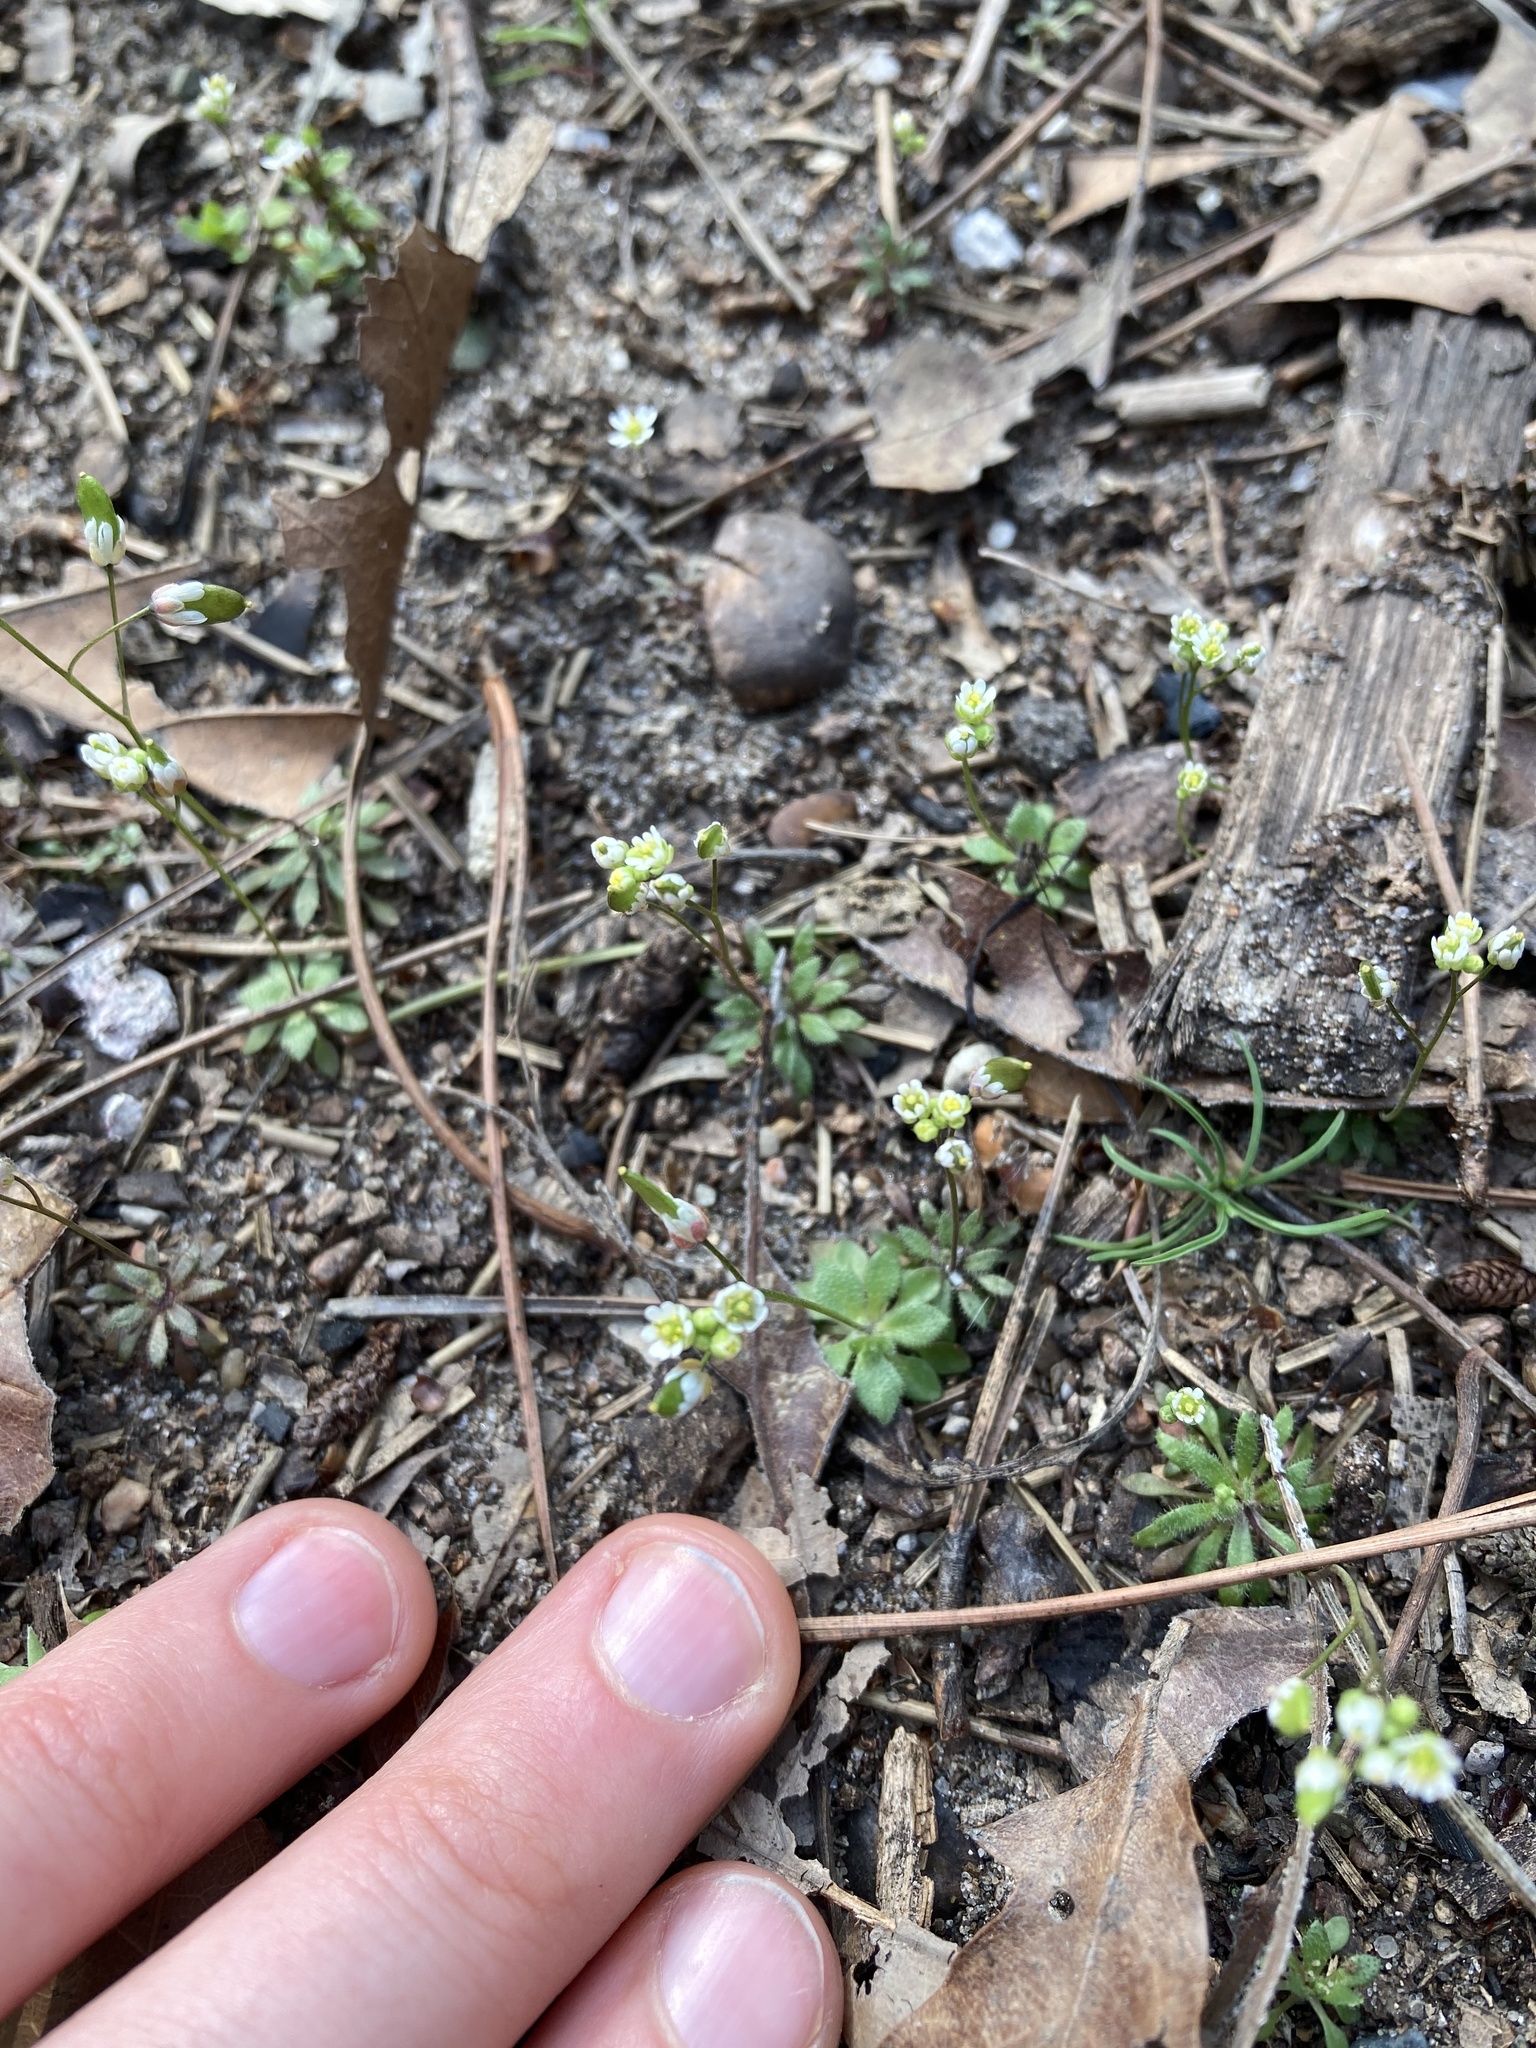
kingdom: Plantae
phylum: Tracheophyta
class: Magnoliopsida
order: Brassicales
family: Brassicaceae
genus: Draba
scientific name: Draba verna
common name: Spring draba
